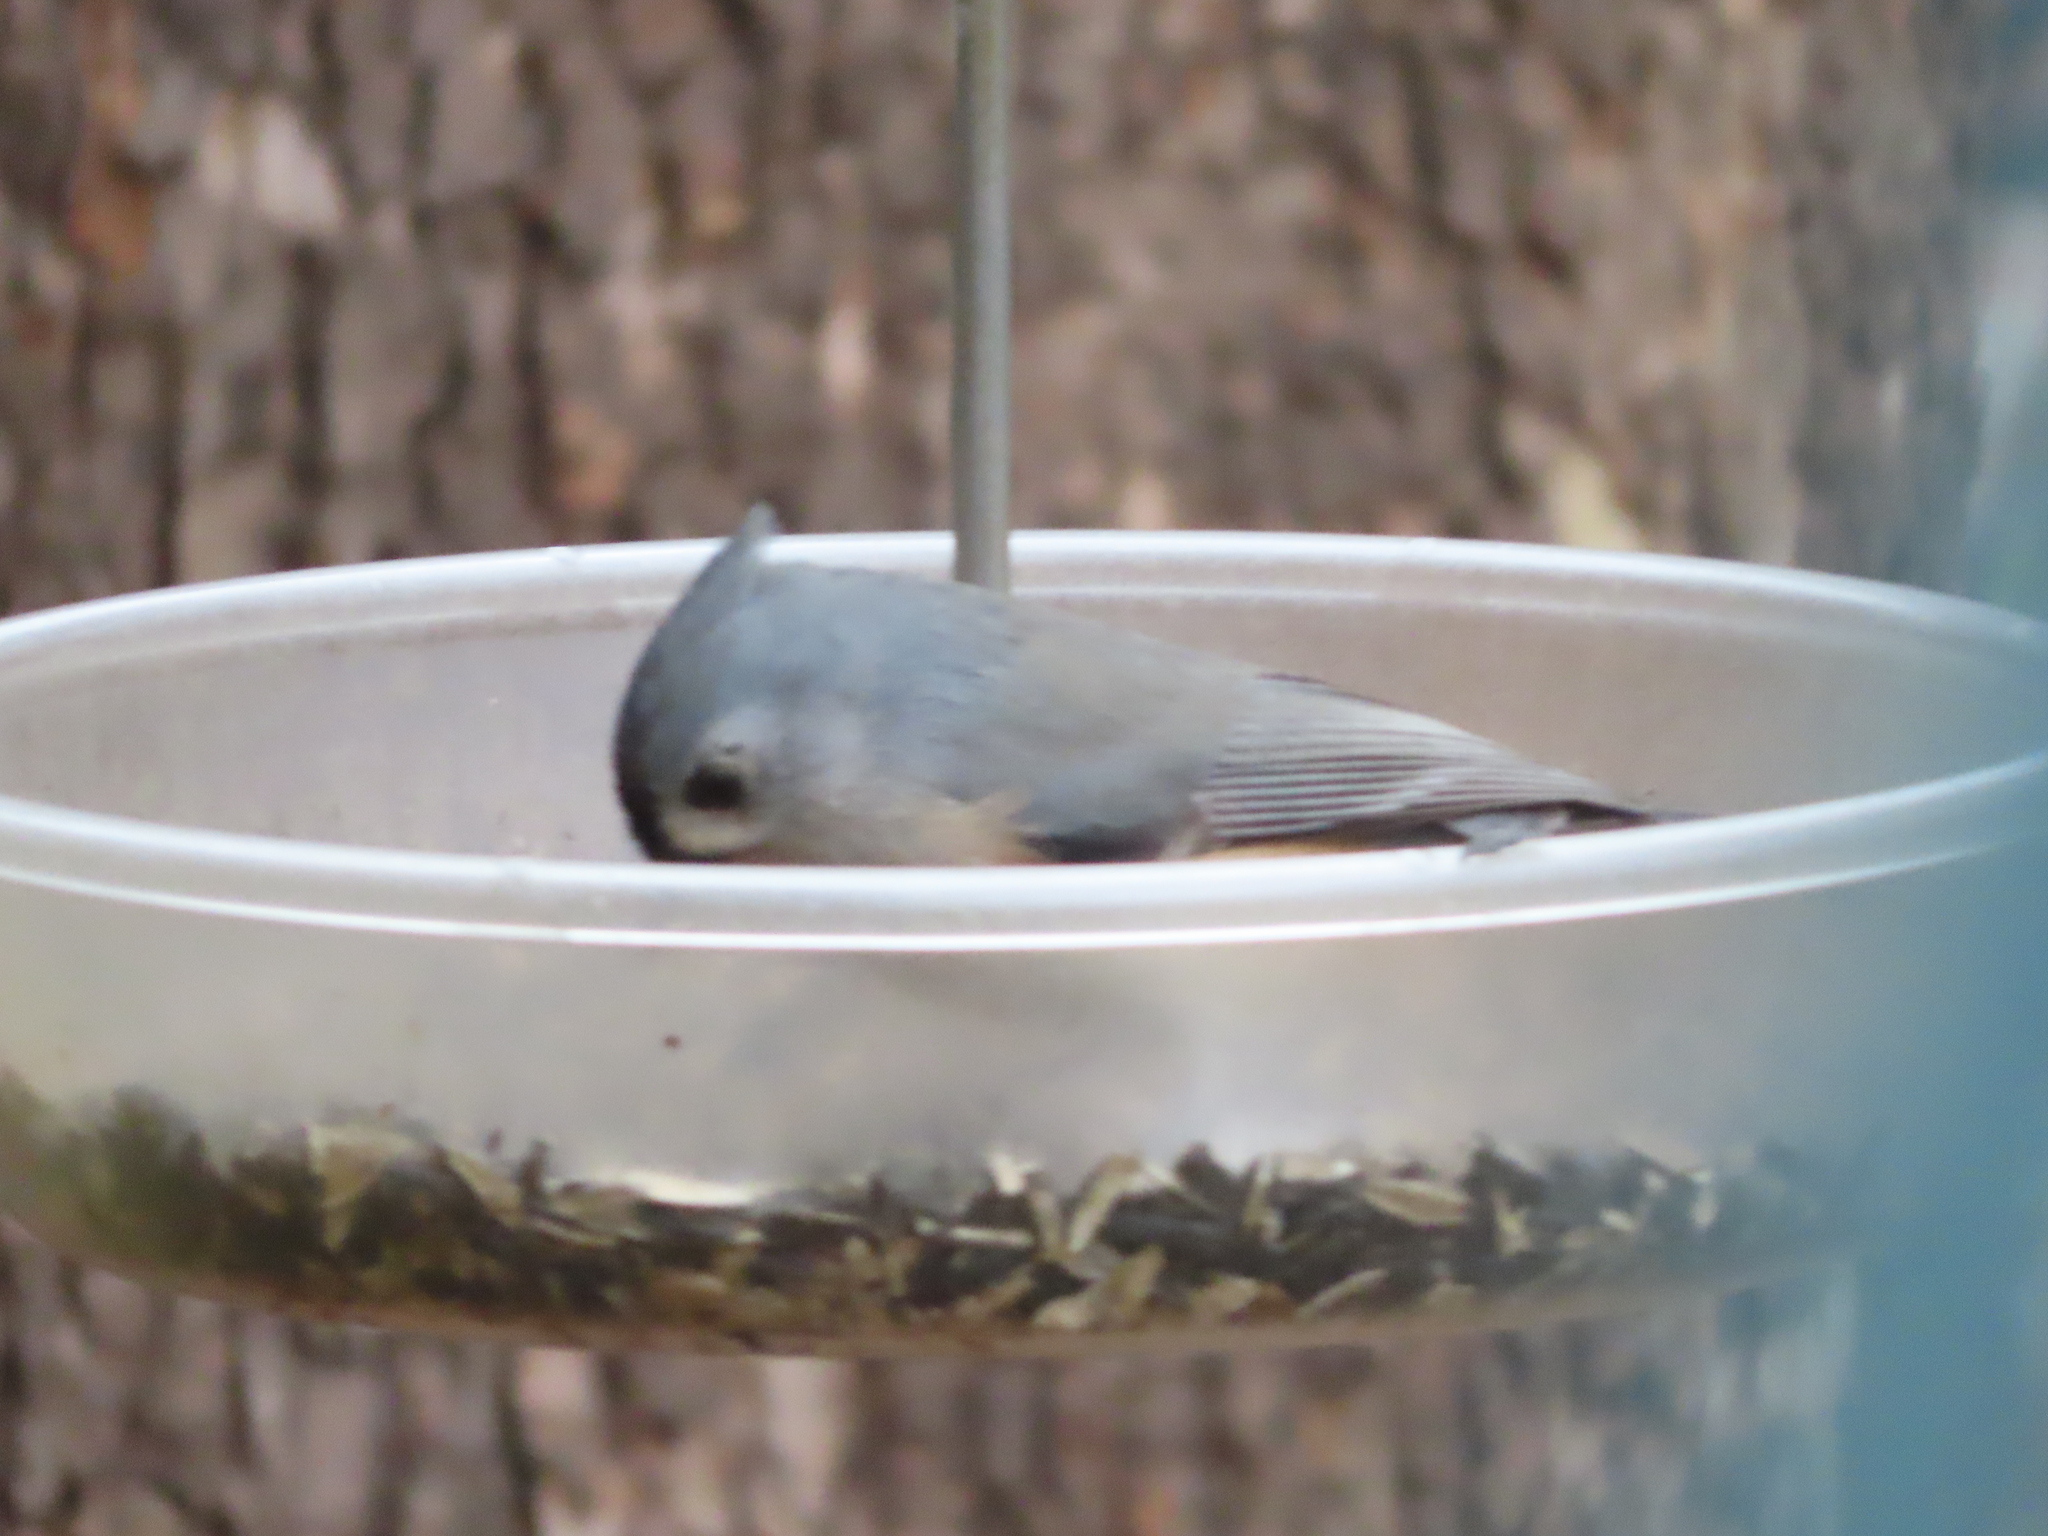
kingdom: Animalia
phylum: Chordata
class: Aves
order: Passeriformes
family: Paridae
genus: Baeolophus
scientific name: Baeolophus bicolor
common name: Tufted titmouse
